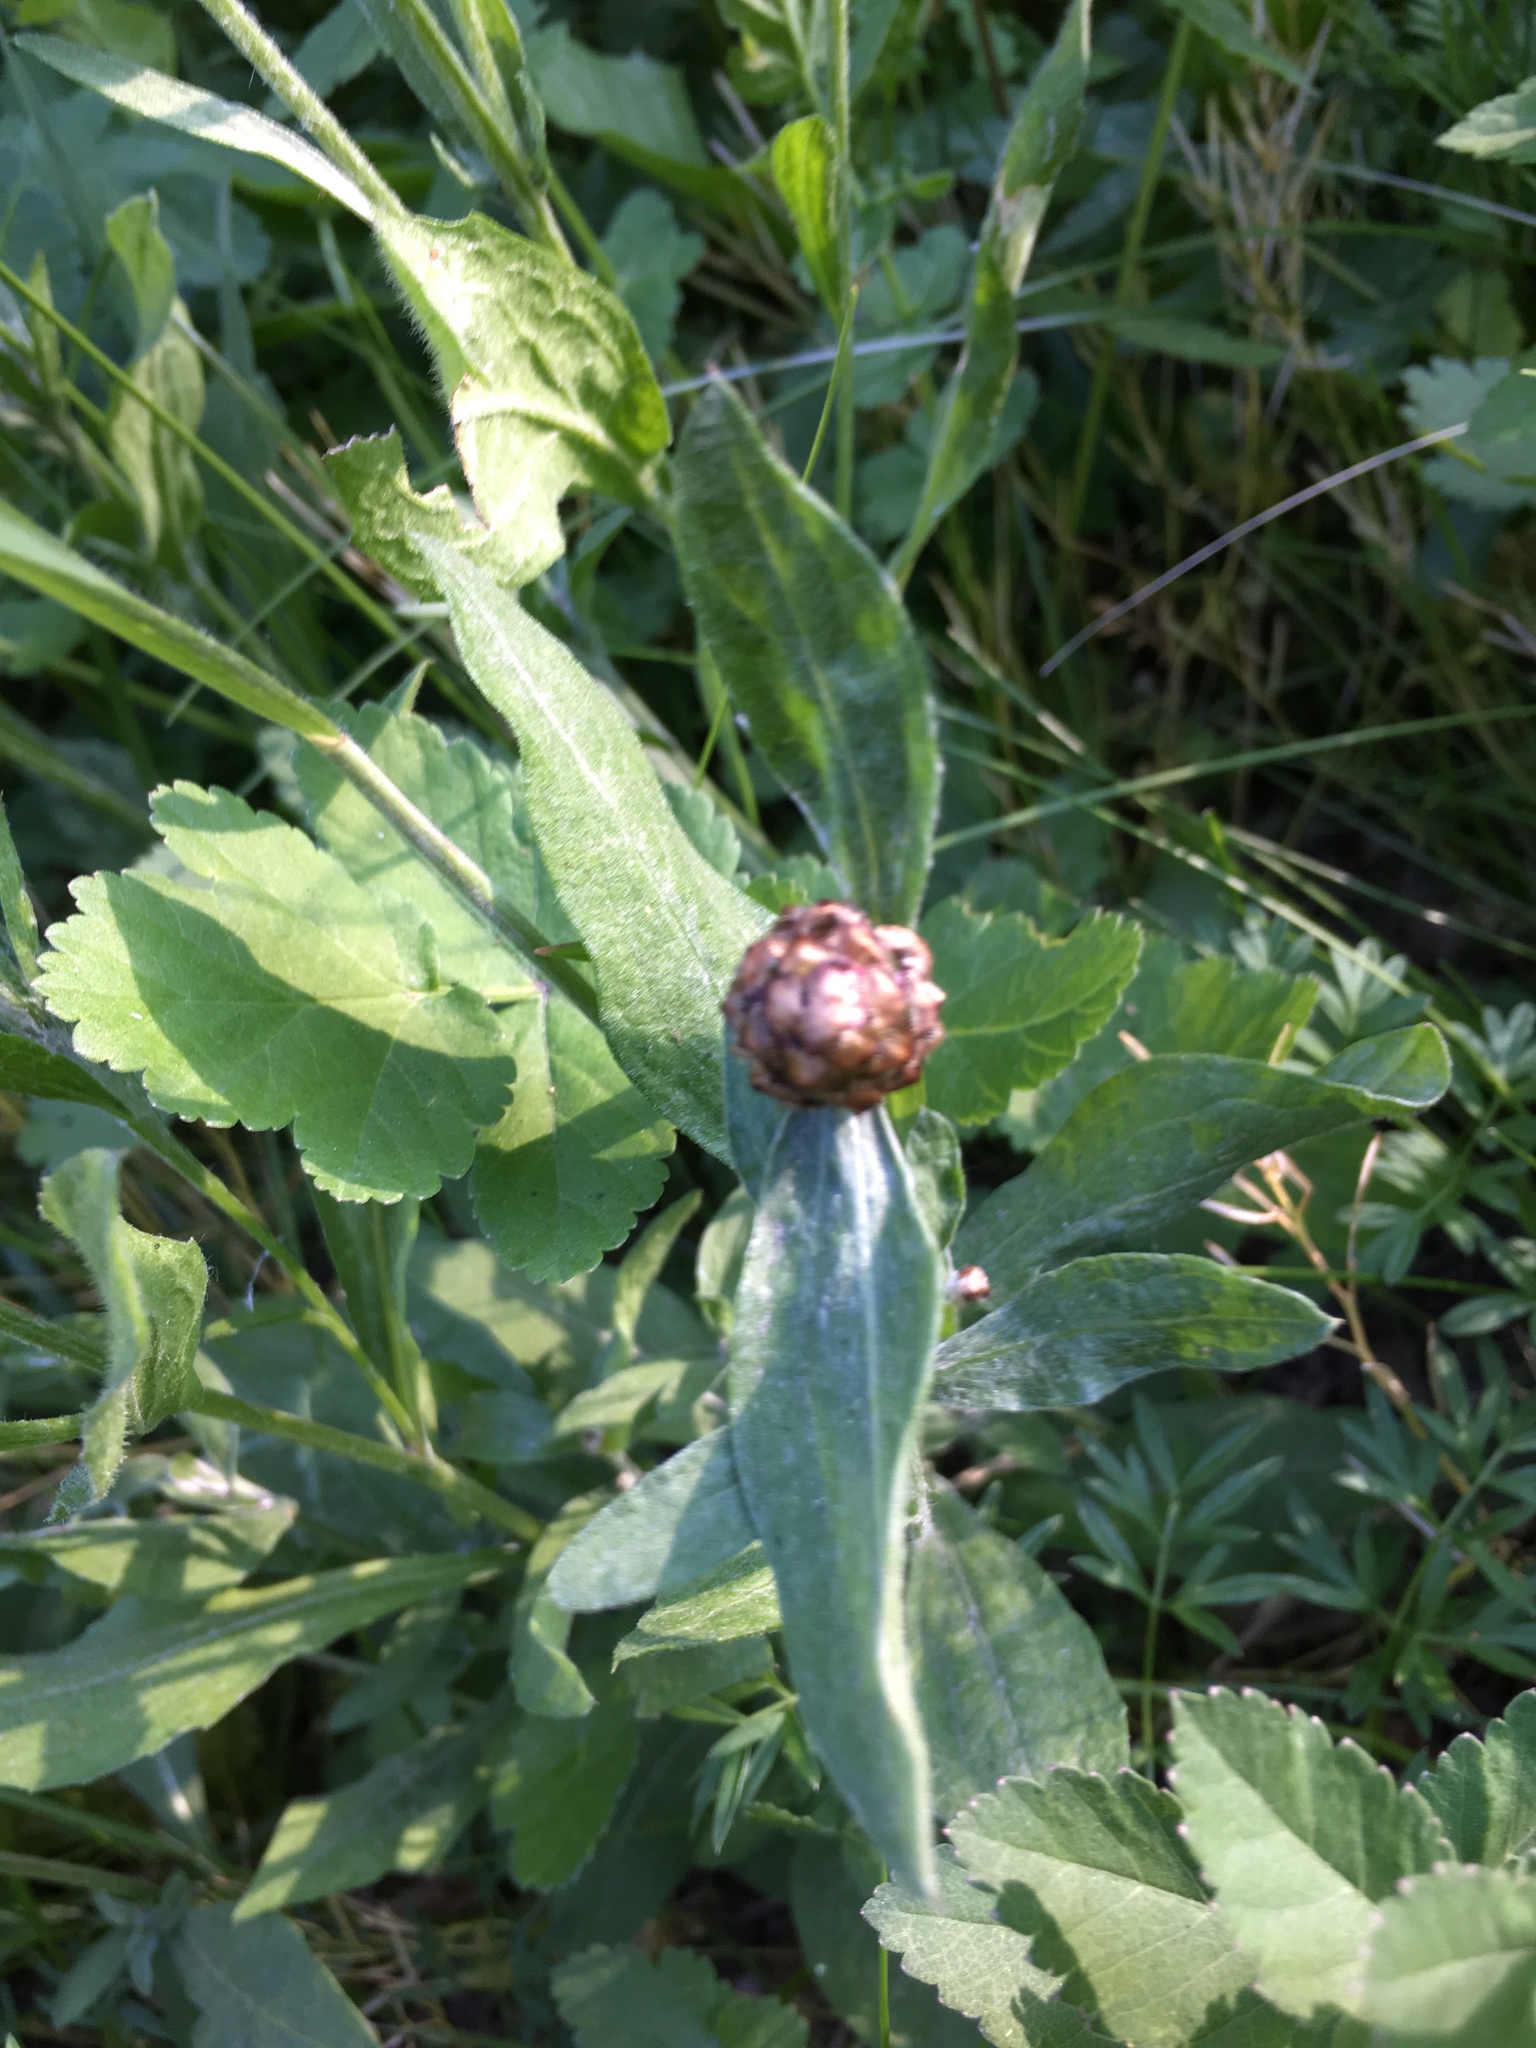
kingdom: Plantae
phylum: Tracheophyta
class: Magnoliopsida
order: Asterales
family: Asteraceae
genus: Centaurea
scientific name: Centaurea jacea
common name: Brown knapweed
